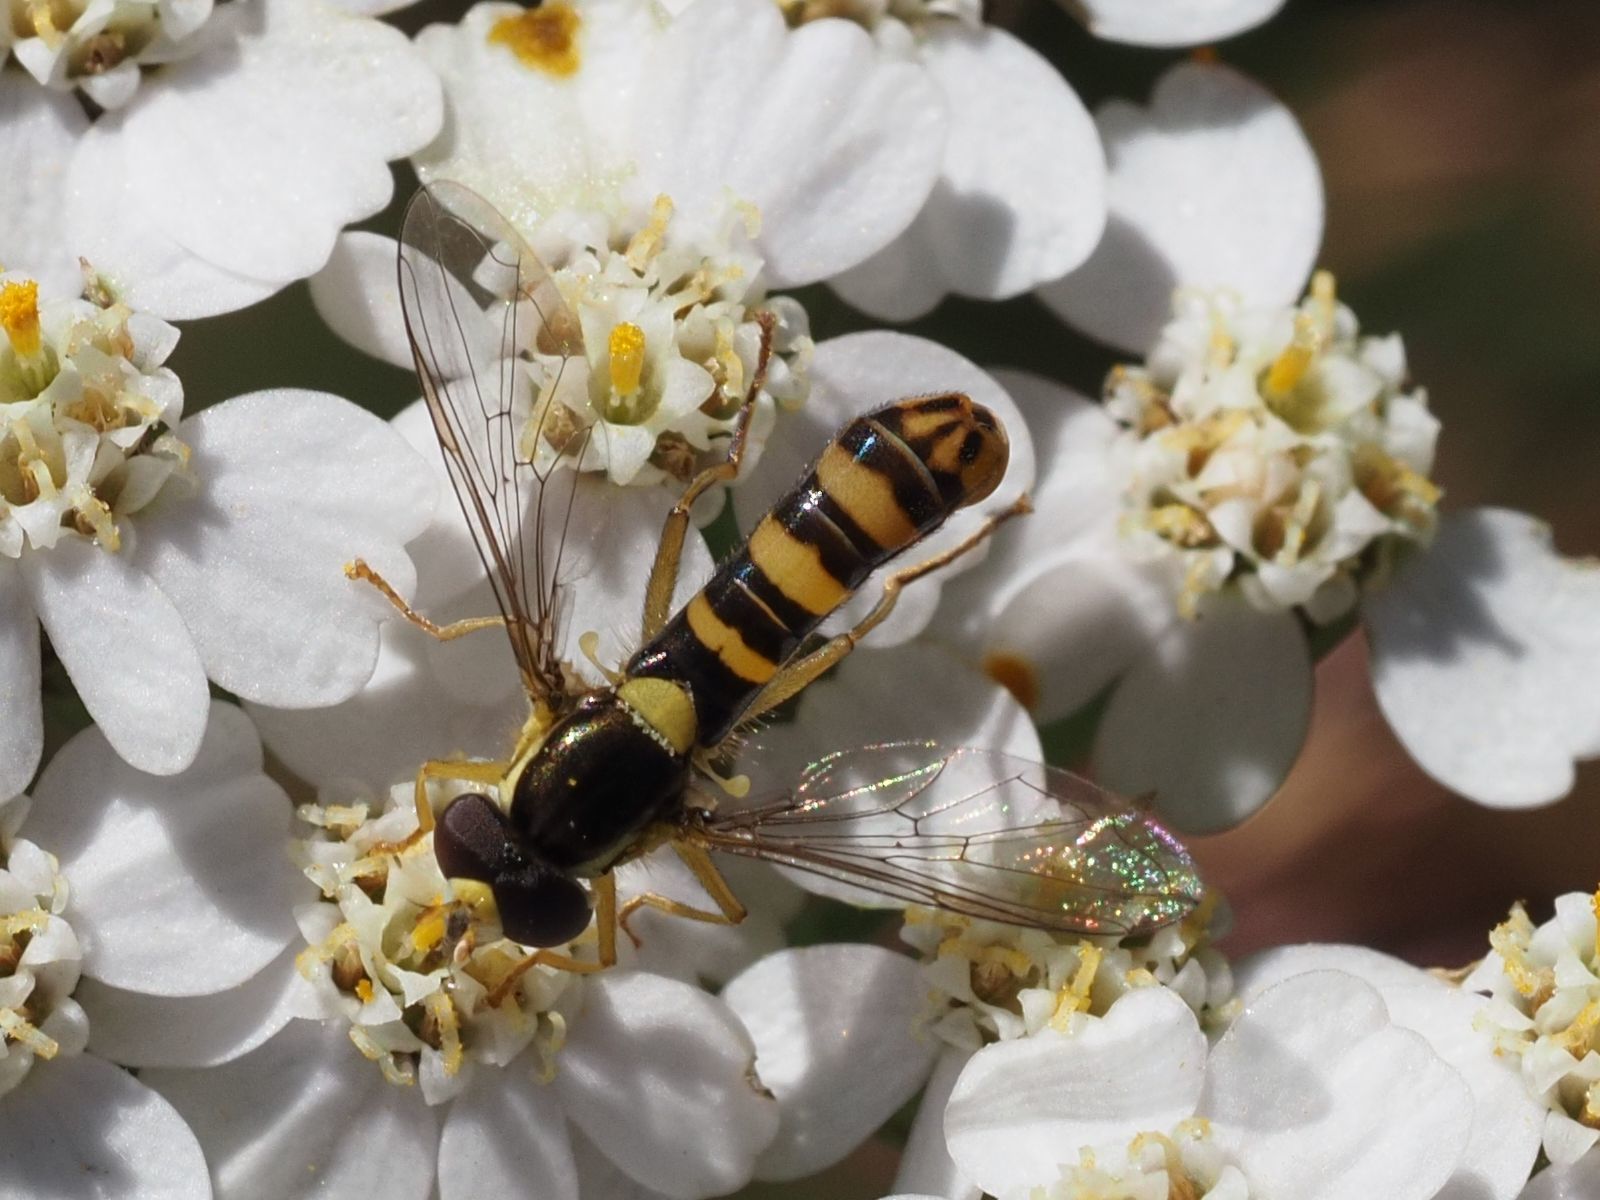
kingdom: Animalia
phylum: Arthropoda
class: Insecta
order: Diptera
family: Syrphidae
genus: Sphaerophoria
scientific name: Sphaerophoria
